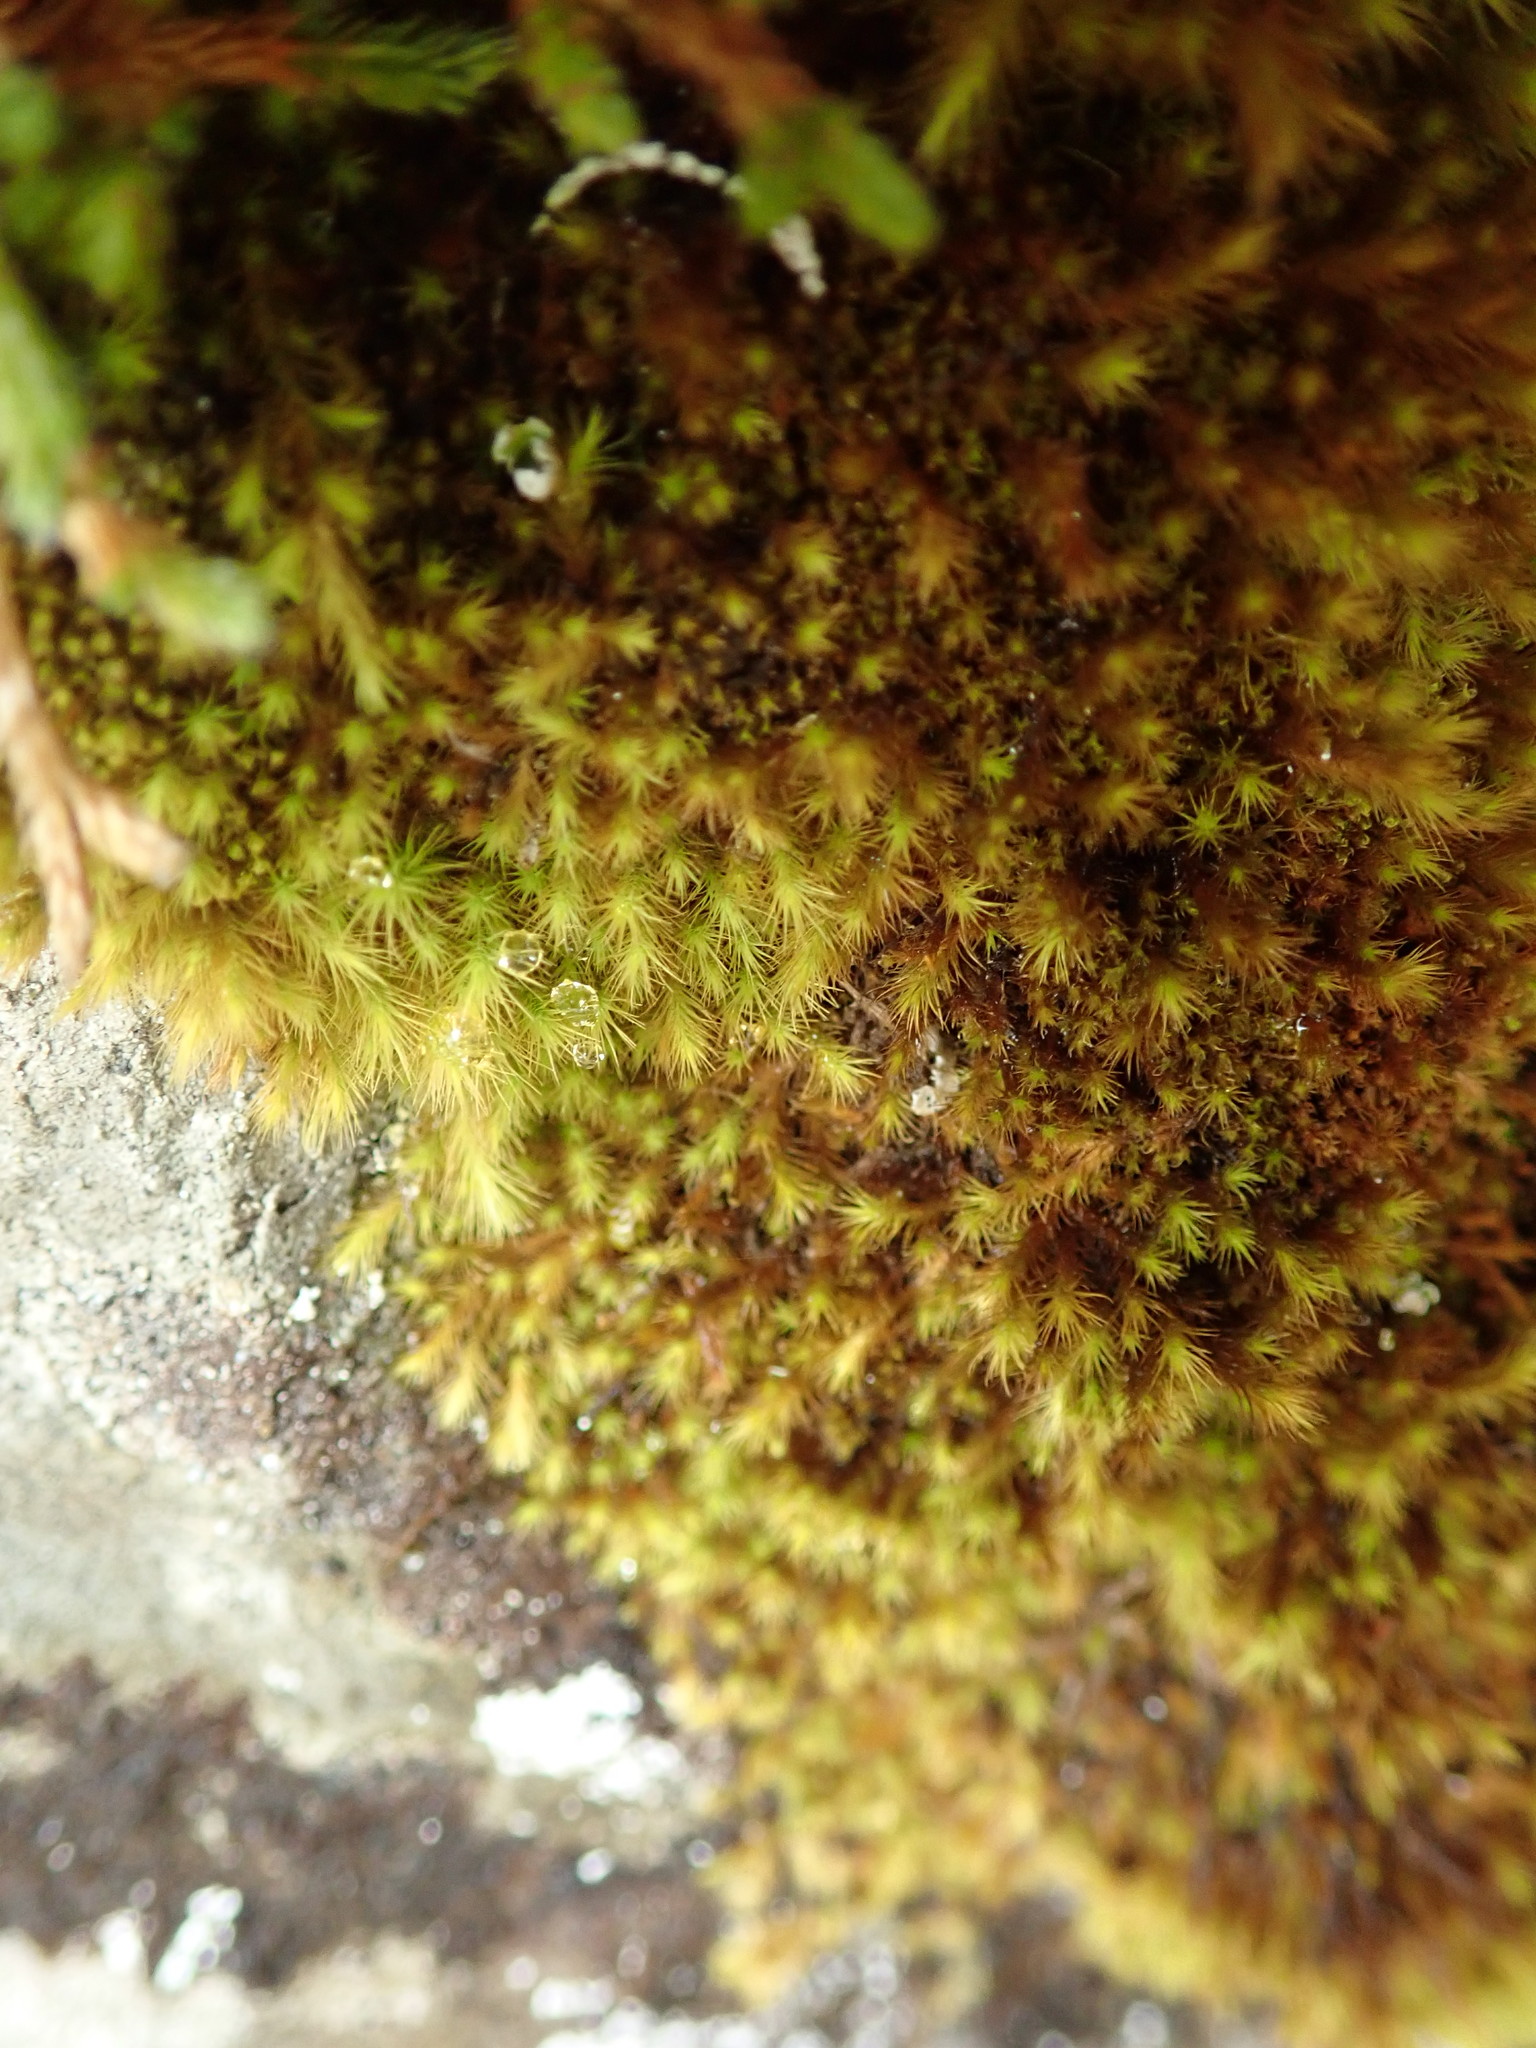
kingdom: Plantae
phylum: Bryophyta
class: Bryopsida
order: Bartramiales
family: Bartramiaceae
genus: Anacolia
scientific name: Anacolia menziesii
